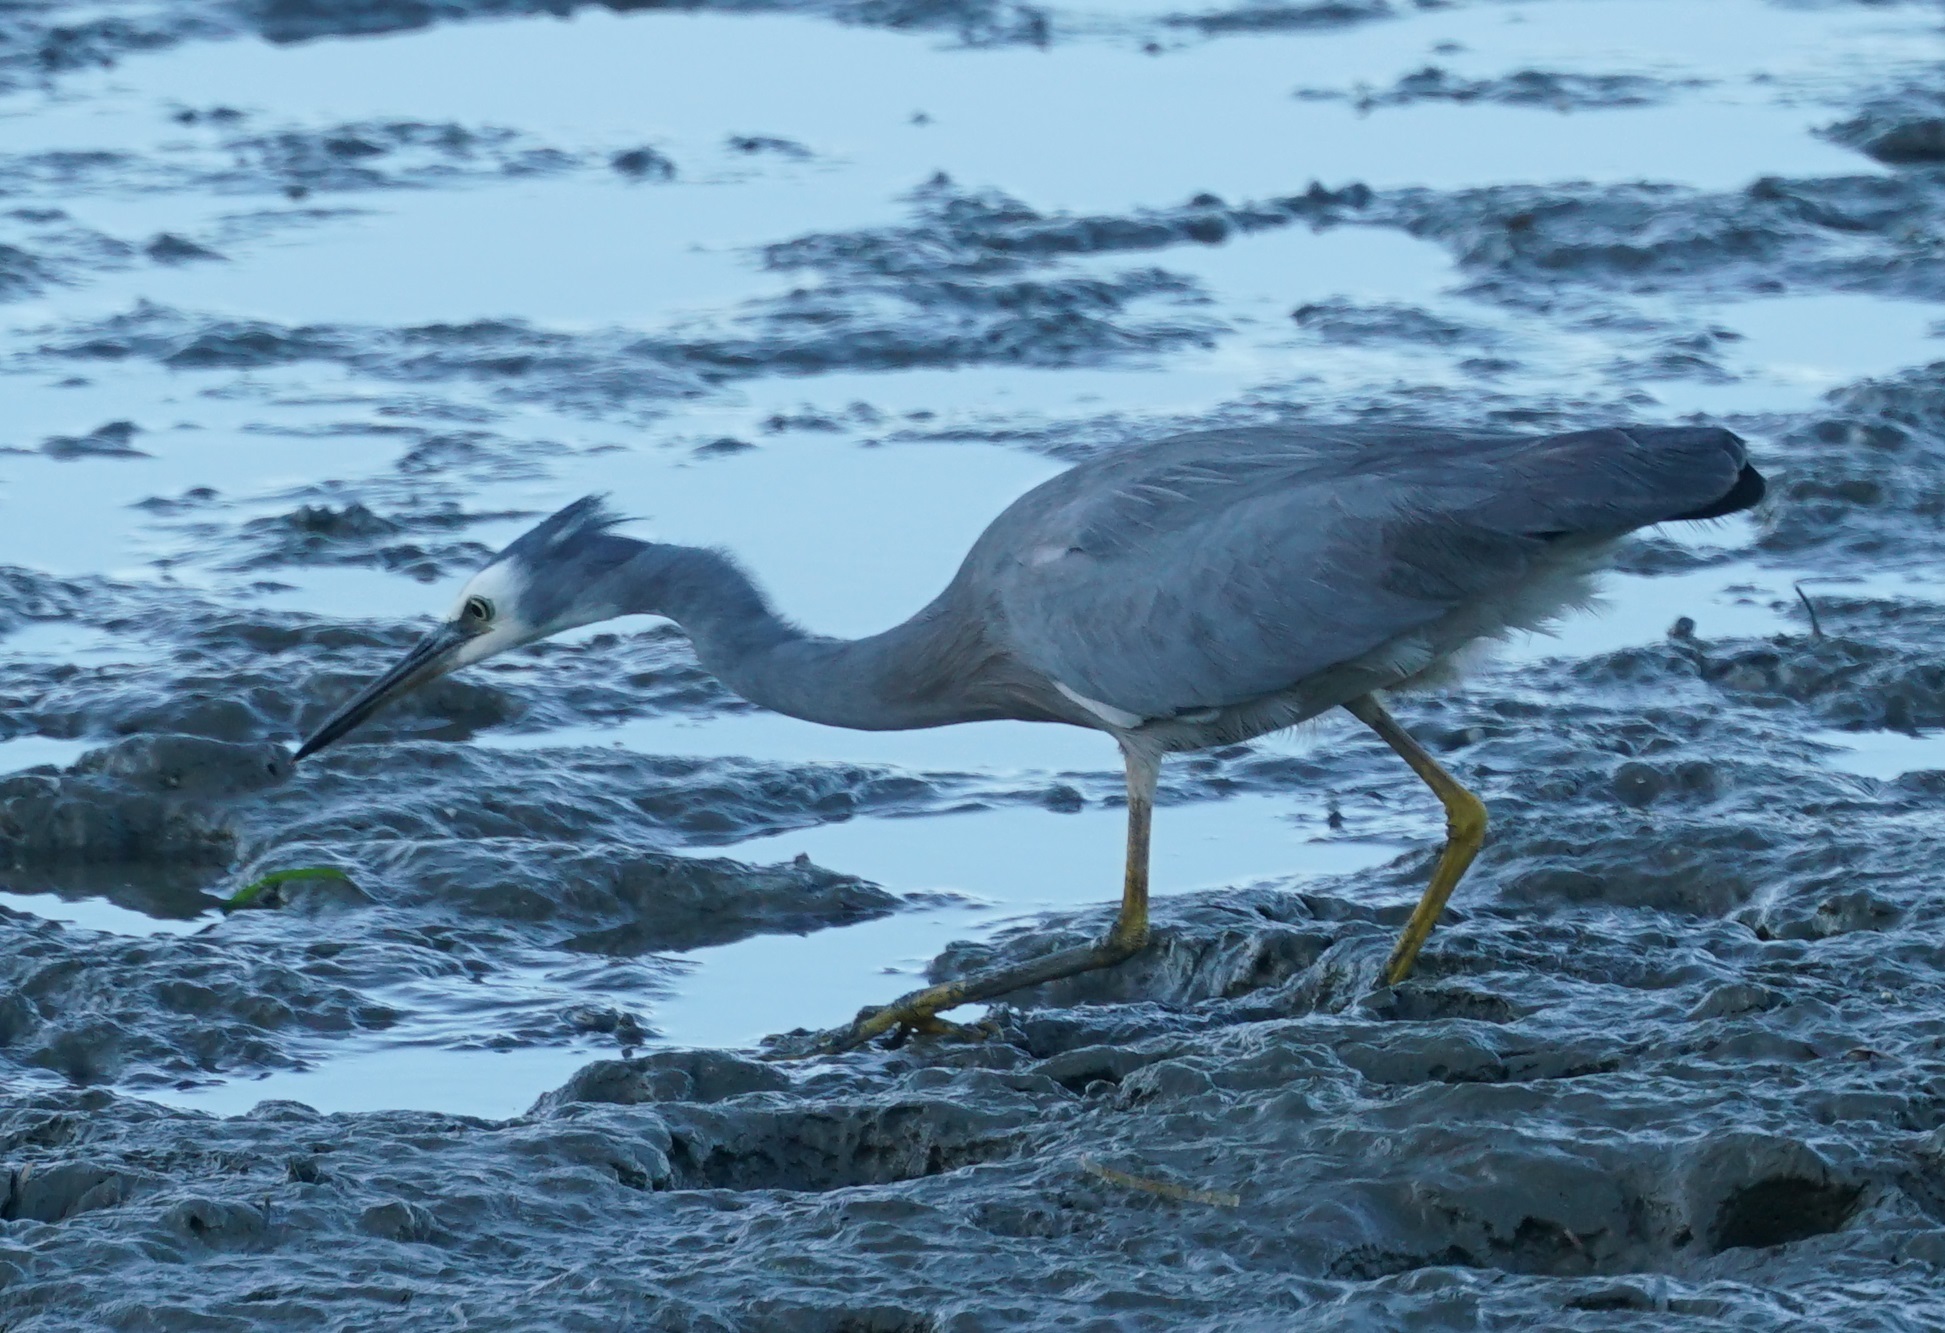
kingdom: Animalia
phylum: Chordata
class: Aves
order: Pelecaniformes
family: Ardeidae
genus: Egretta
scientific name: Egretta novaehollandiae
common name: White-faced heron
